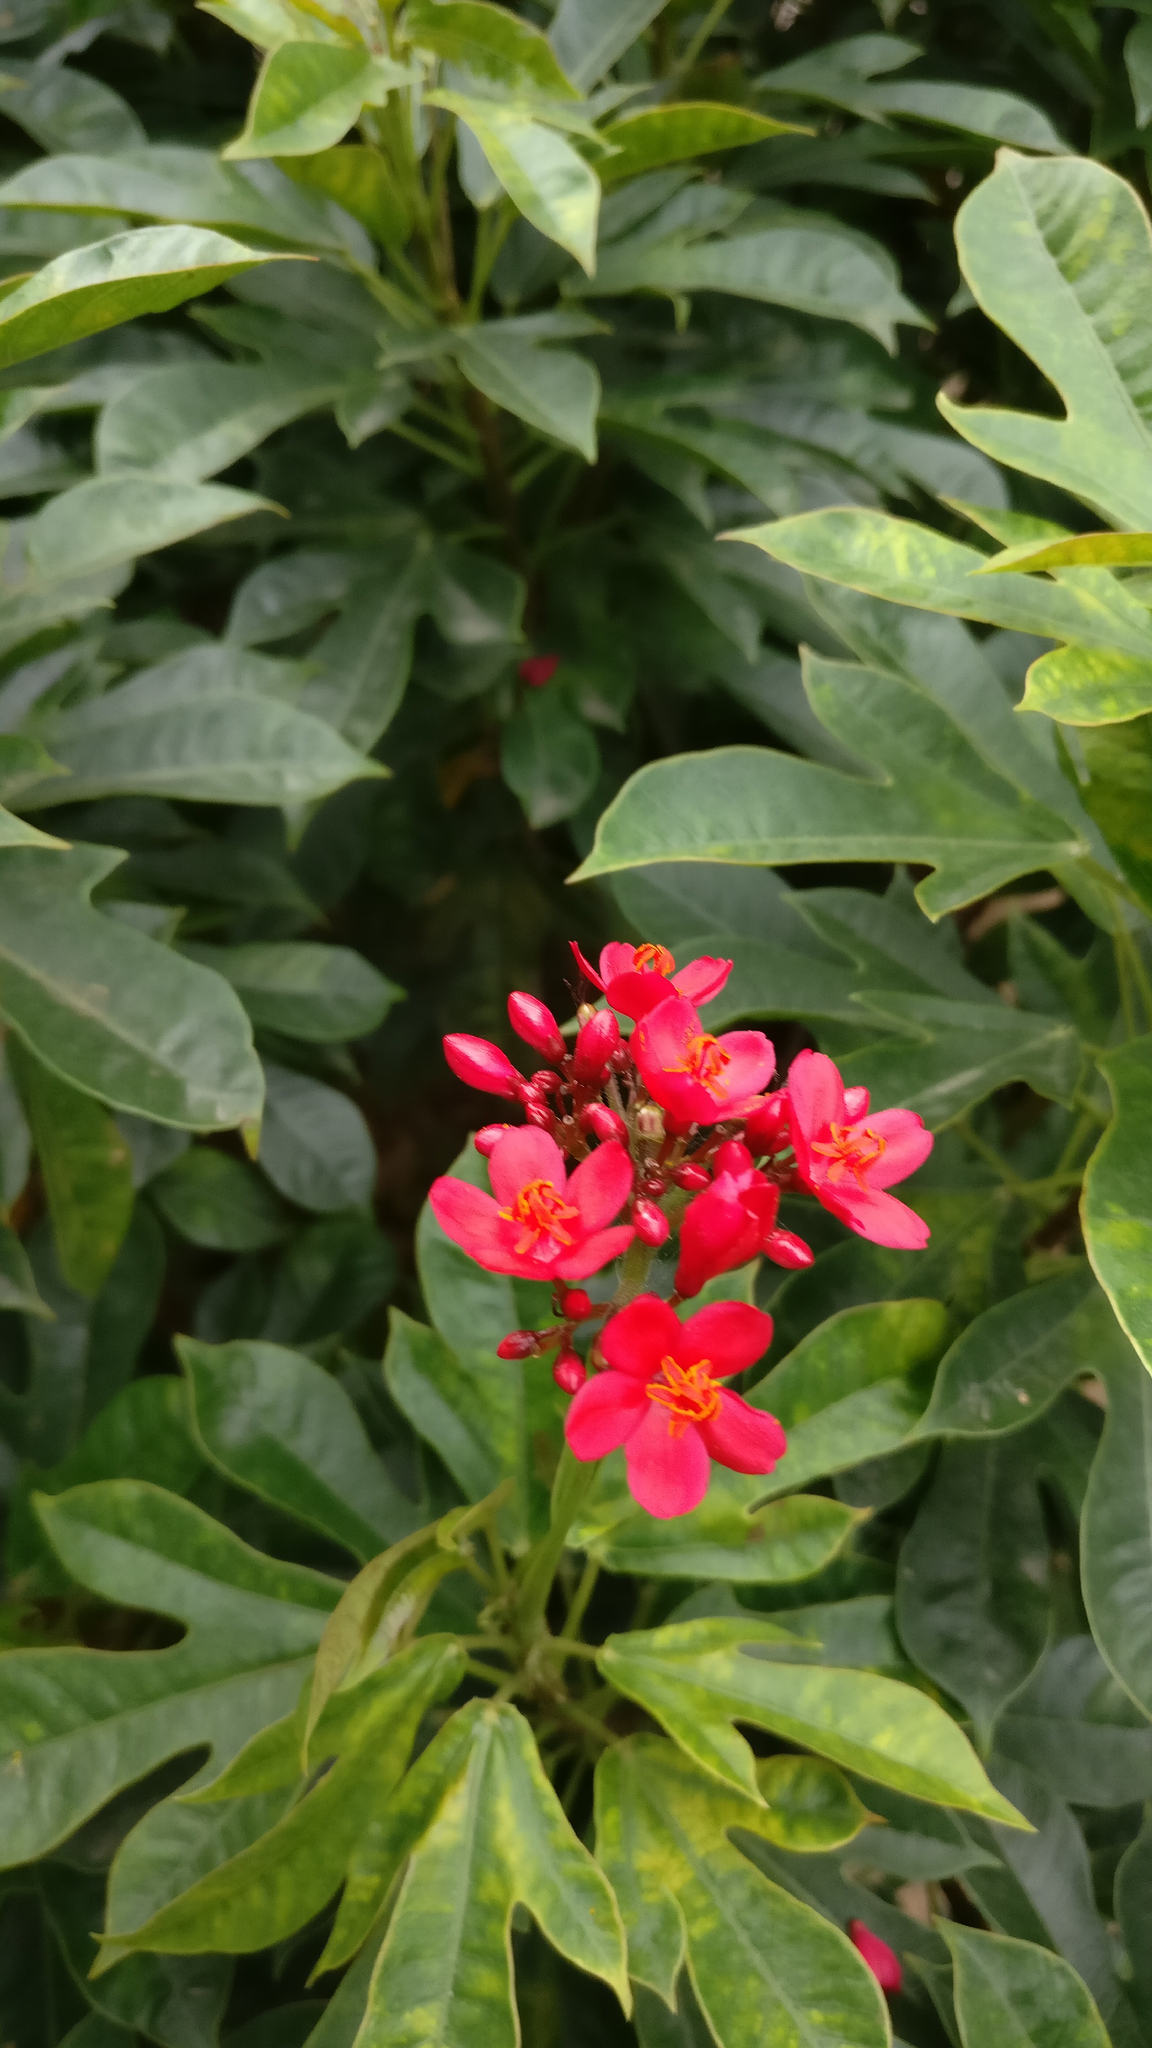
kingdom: Plantae
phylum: Tracheophyta
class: Magnoliopsida
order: Malpighiales
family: Euphorbiaceae
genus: Jatropha
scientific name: Jatropha integerrima
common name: Peregrina
